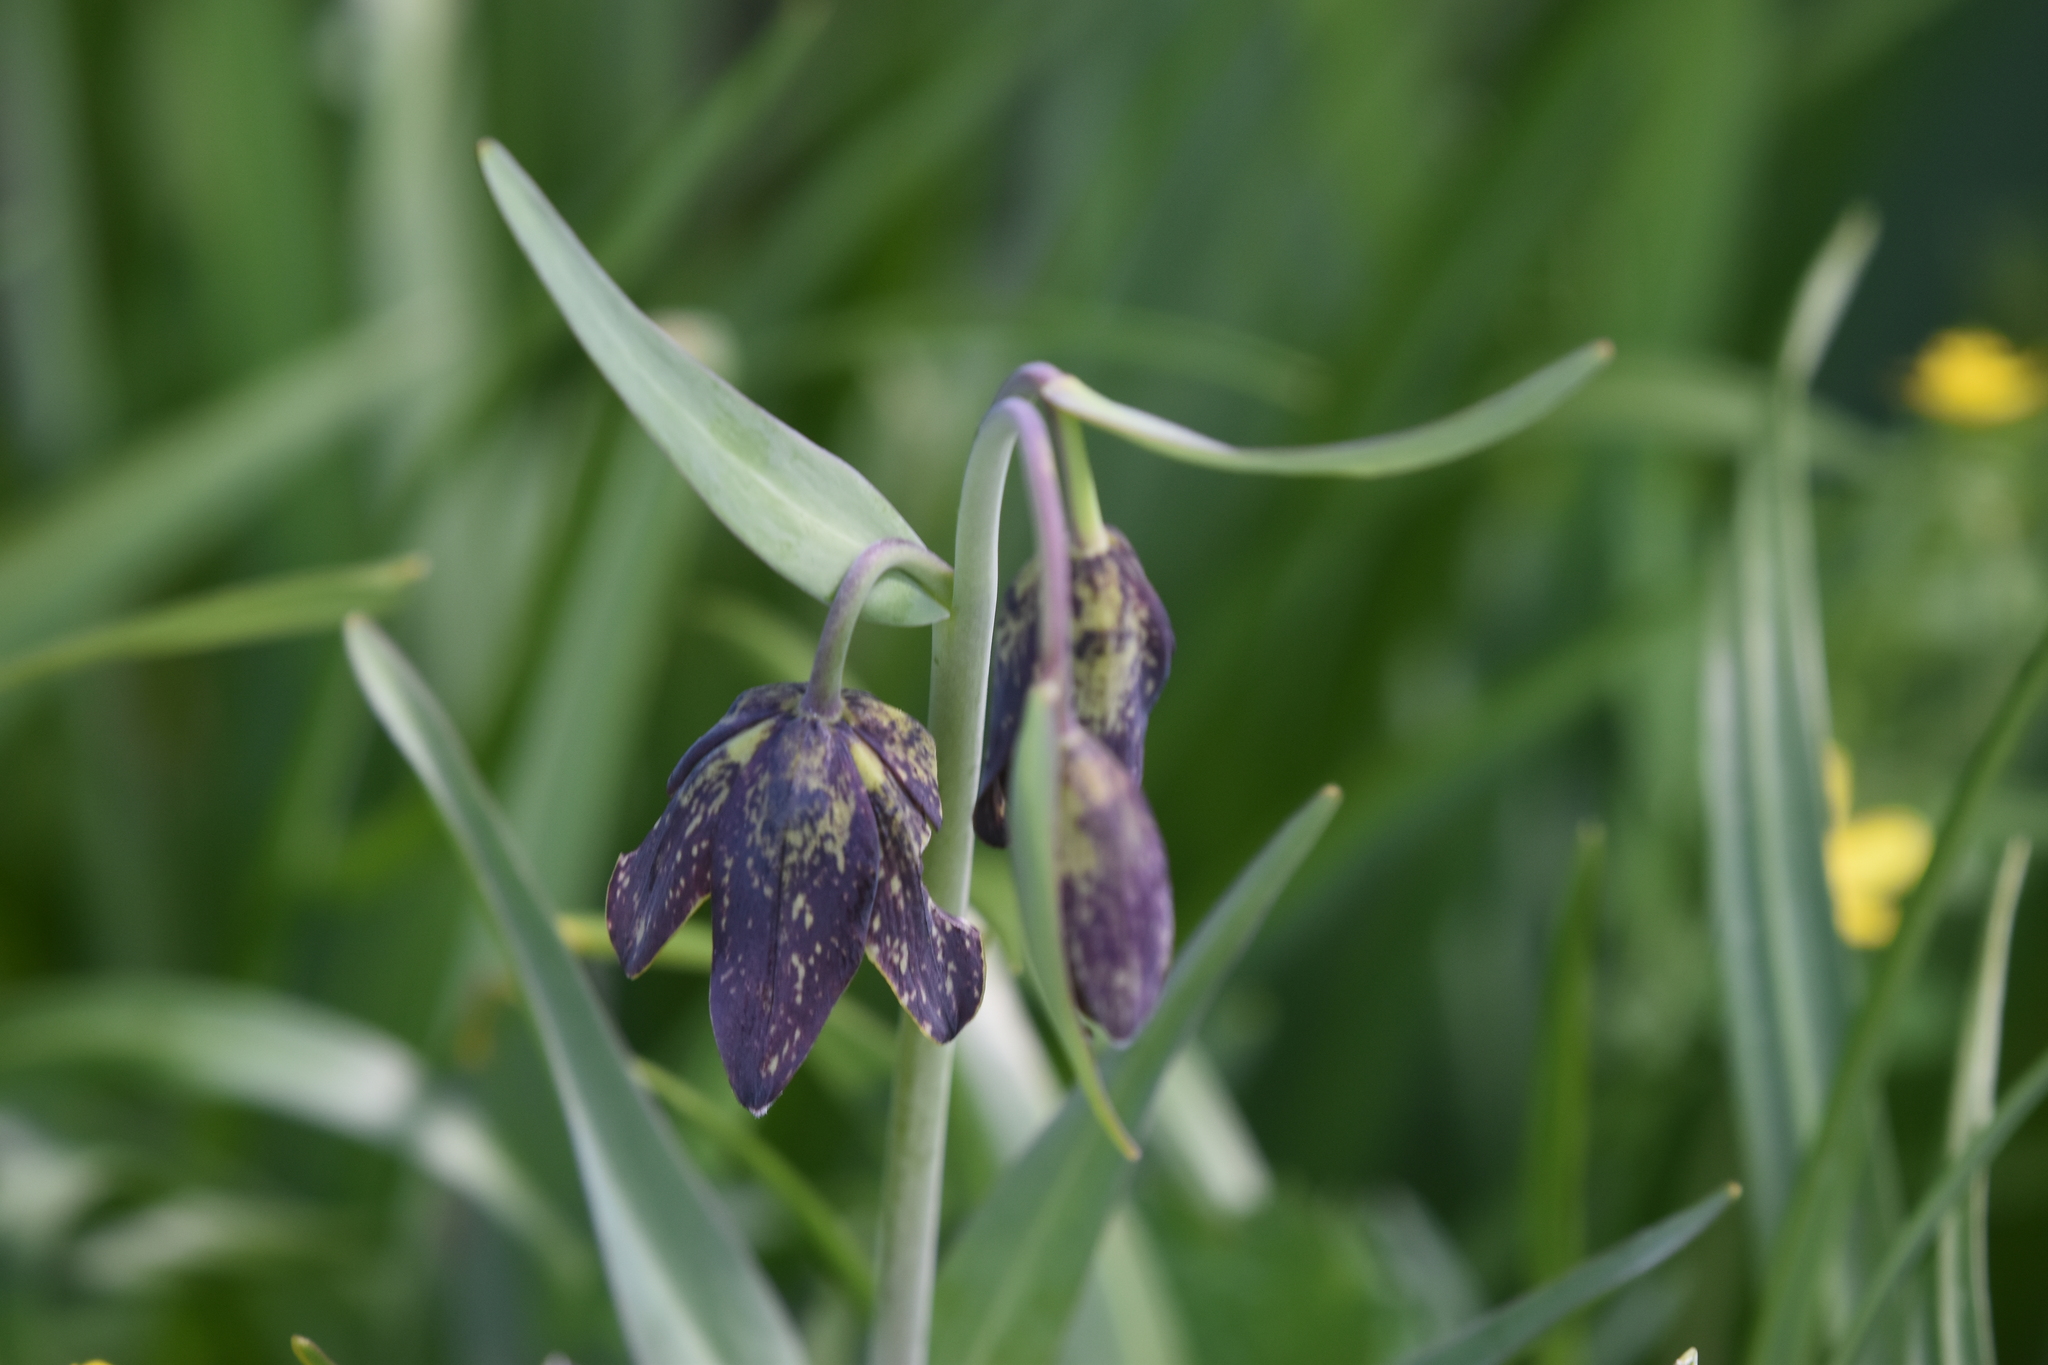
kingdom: Plantae
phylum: Tracheophyta
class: Liliopsida
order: Liliales
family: Liliaceae
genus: Fritillaria
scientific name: Fritillaria affinis
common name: Ojai fritillary
